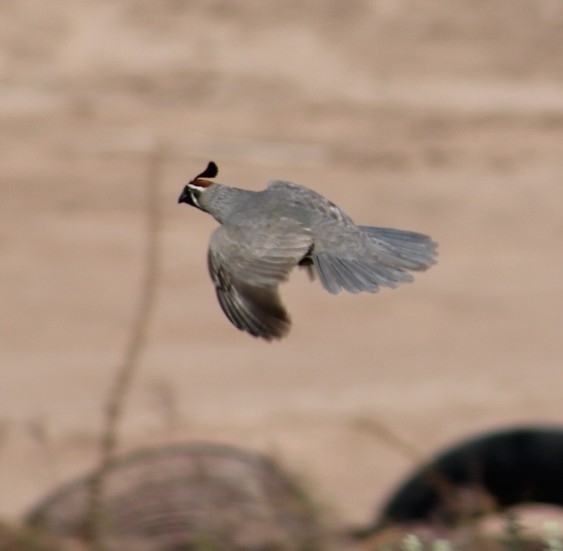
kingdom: Animalia
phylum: Chordata
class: Aves
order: Galliformes
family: Odontophoridae
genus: Callipepla
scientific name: Callipepla gambelii
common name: Gambel's quail
